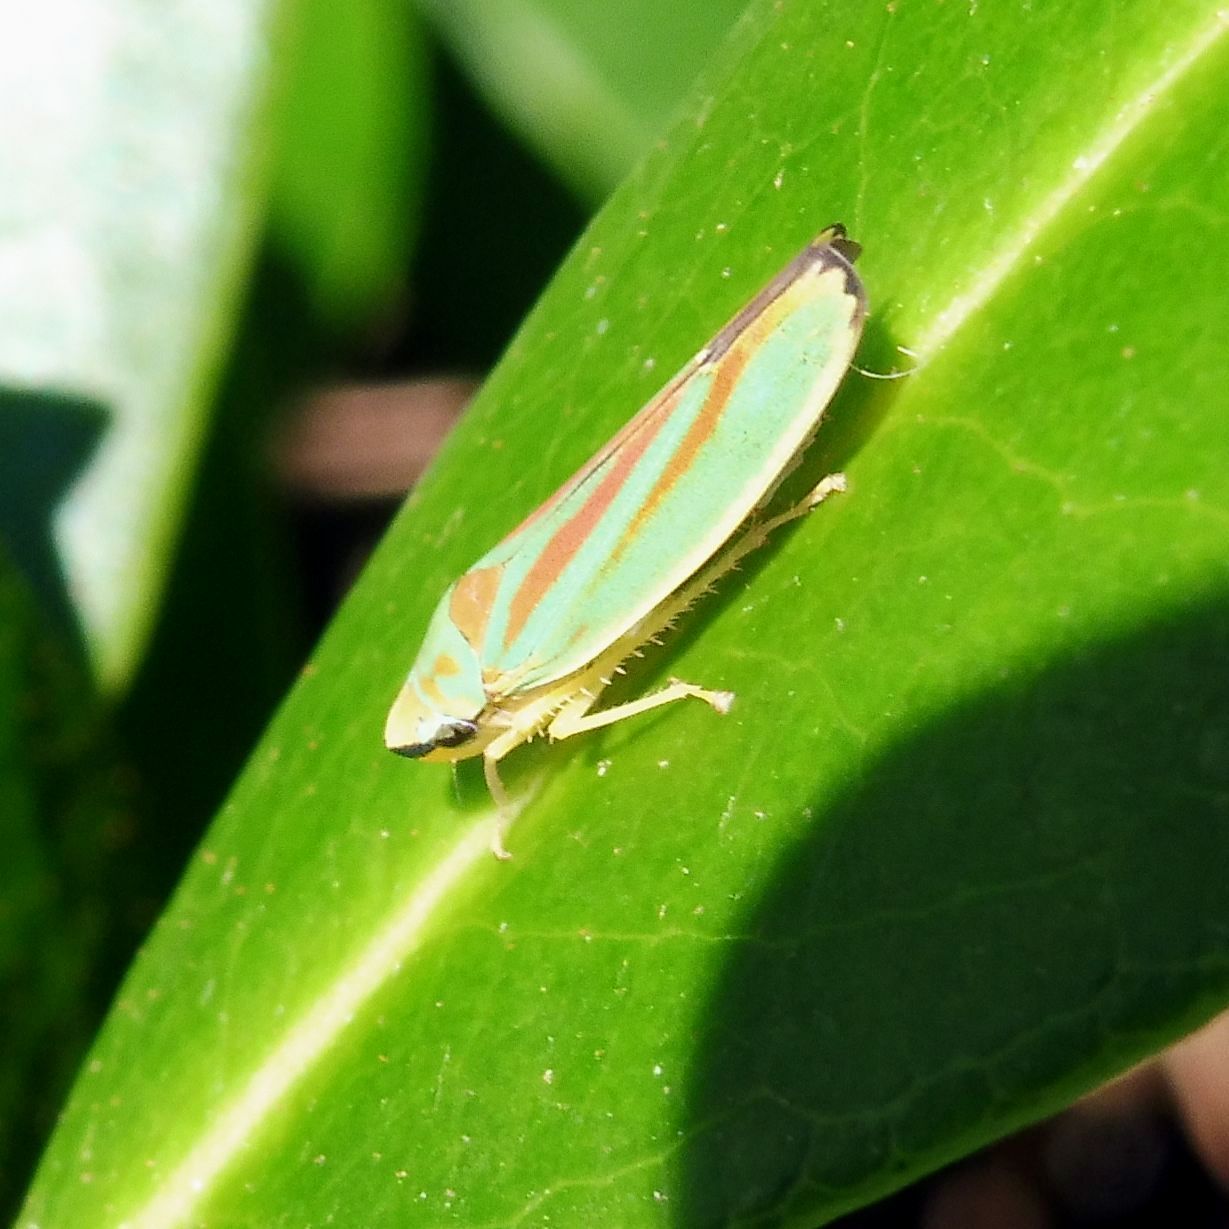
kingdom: Animalia
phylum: Arthropoda
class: Insecta
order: Hemiptera
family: Cicadellidae
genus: Graphocephala
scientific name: Graphocephala fennahi
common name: Rhododendron leafhopper
